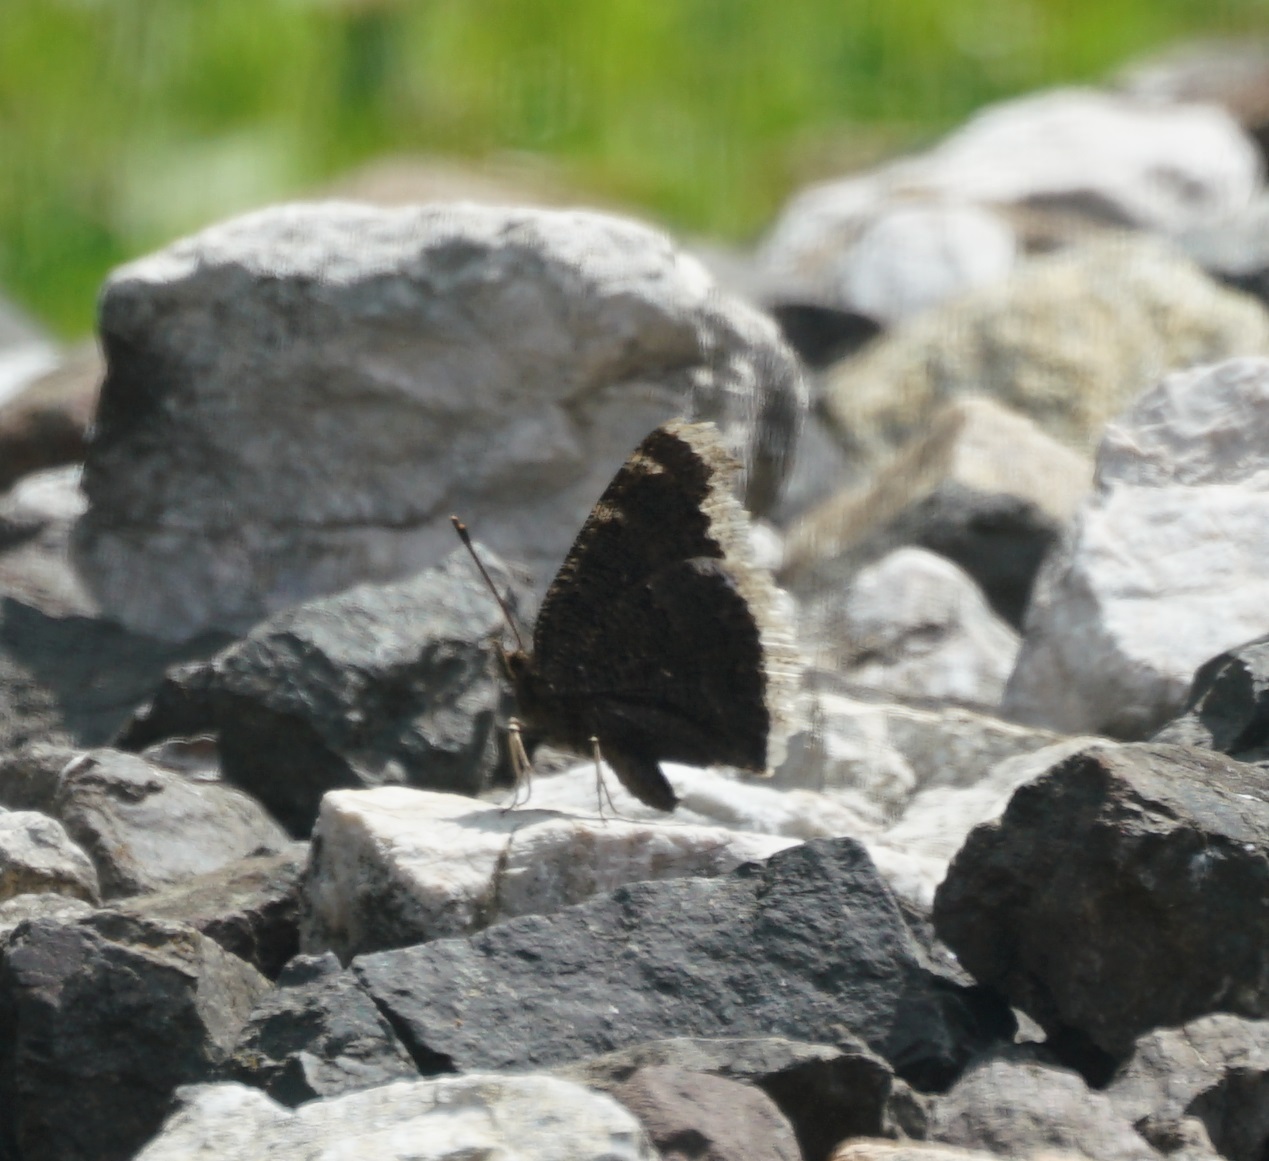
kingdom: Animalia
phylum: Arthropoda
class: Insecta
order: Lepidoptera
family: Nymphalidae
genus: Nymphalis
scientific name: Nymphalis antiopa
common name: Camberwell beauty
